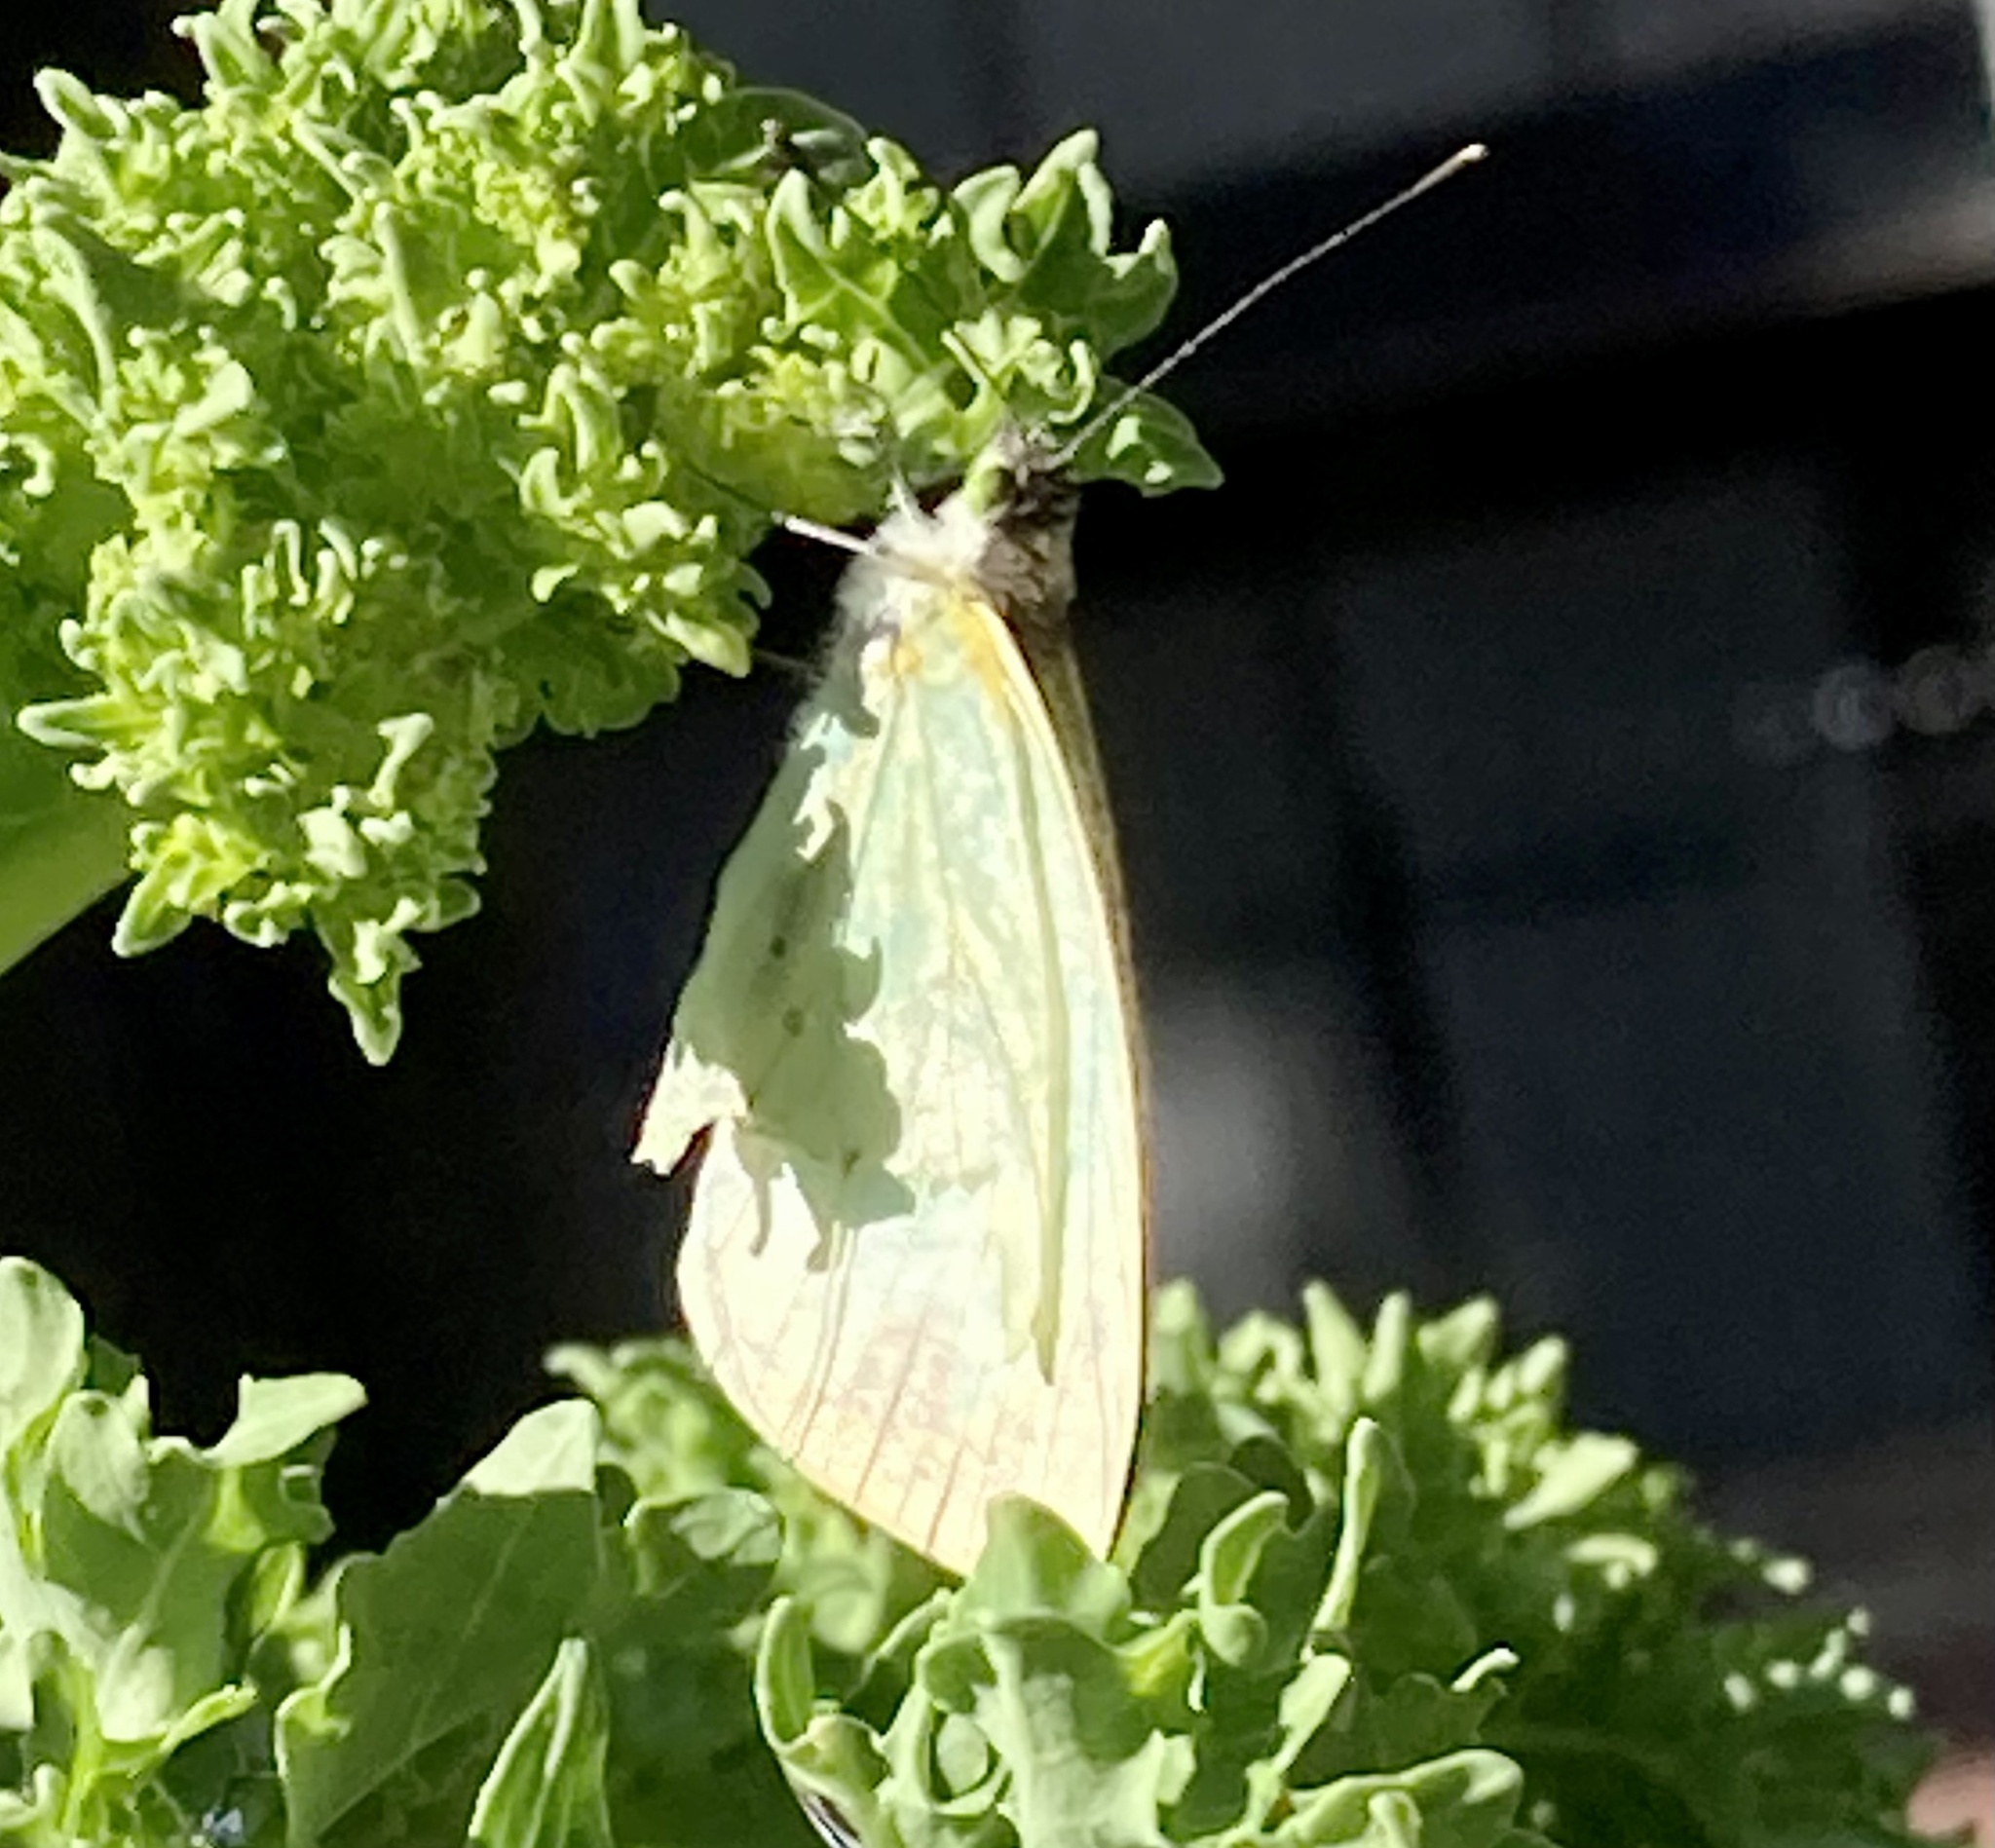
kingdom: Animalia
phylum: Arthropoda
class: Insecta
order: Lepidoptera
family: Pieridae
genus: Leptophobia
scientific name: Leptophobia aripa
